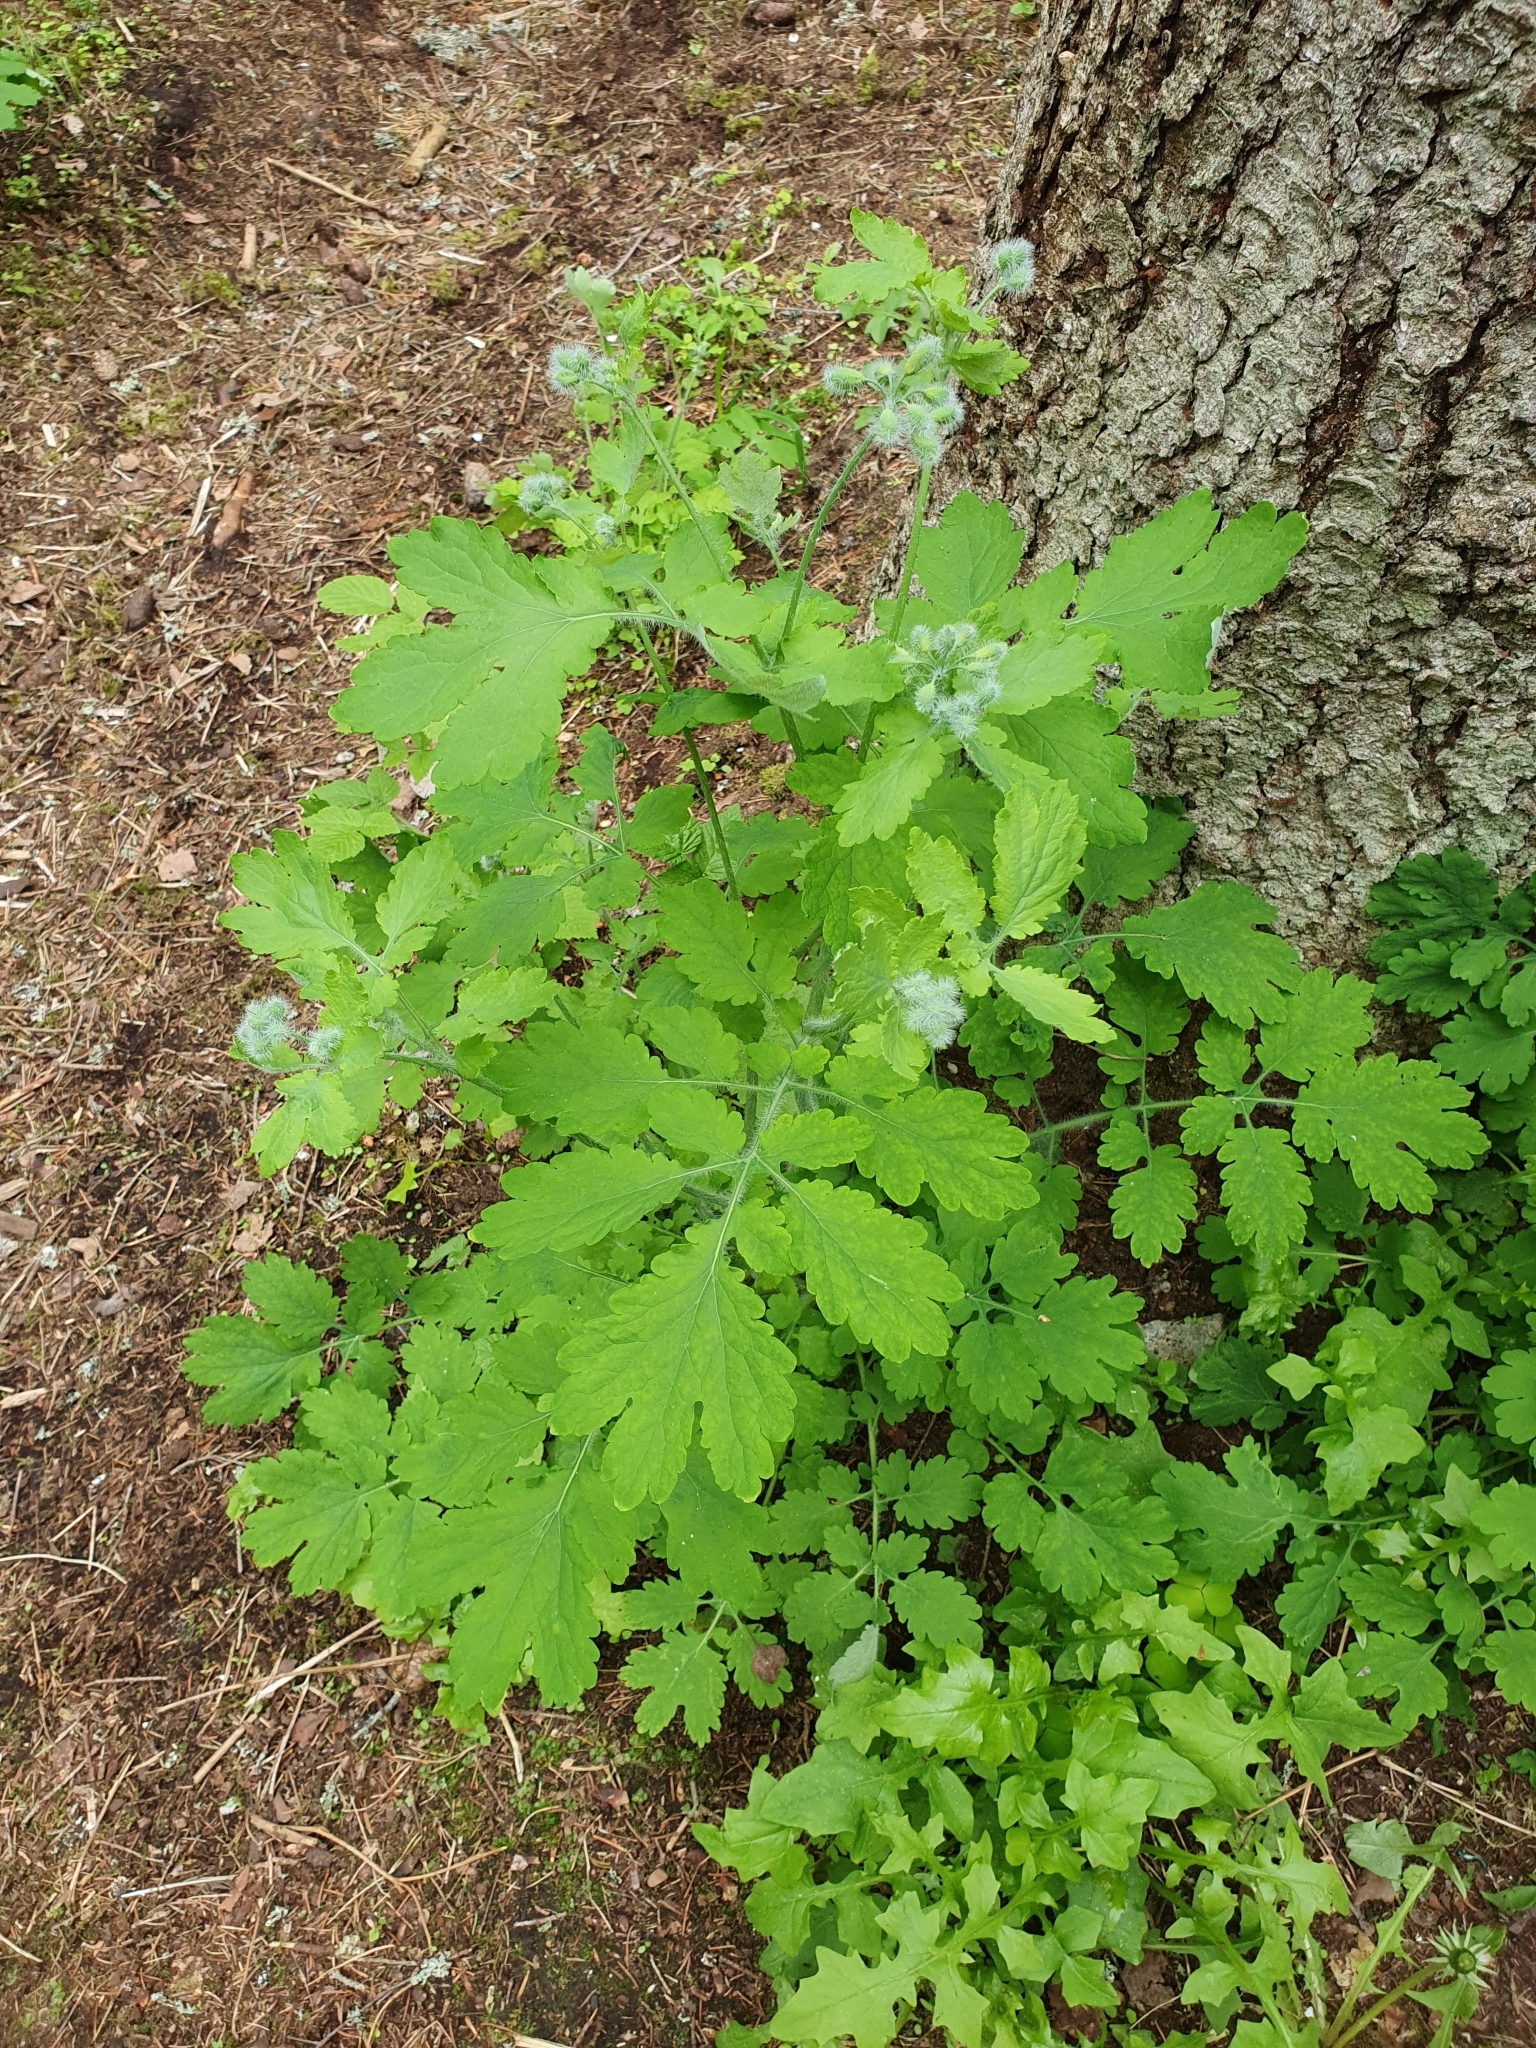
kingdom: Plantae
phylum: Tracheophyta
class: Magnoliopsida
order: Ranunculales
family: Papaveraceae
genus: Chelidonium
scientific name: Chelidonium majus
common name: Greater celandine
